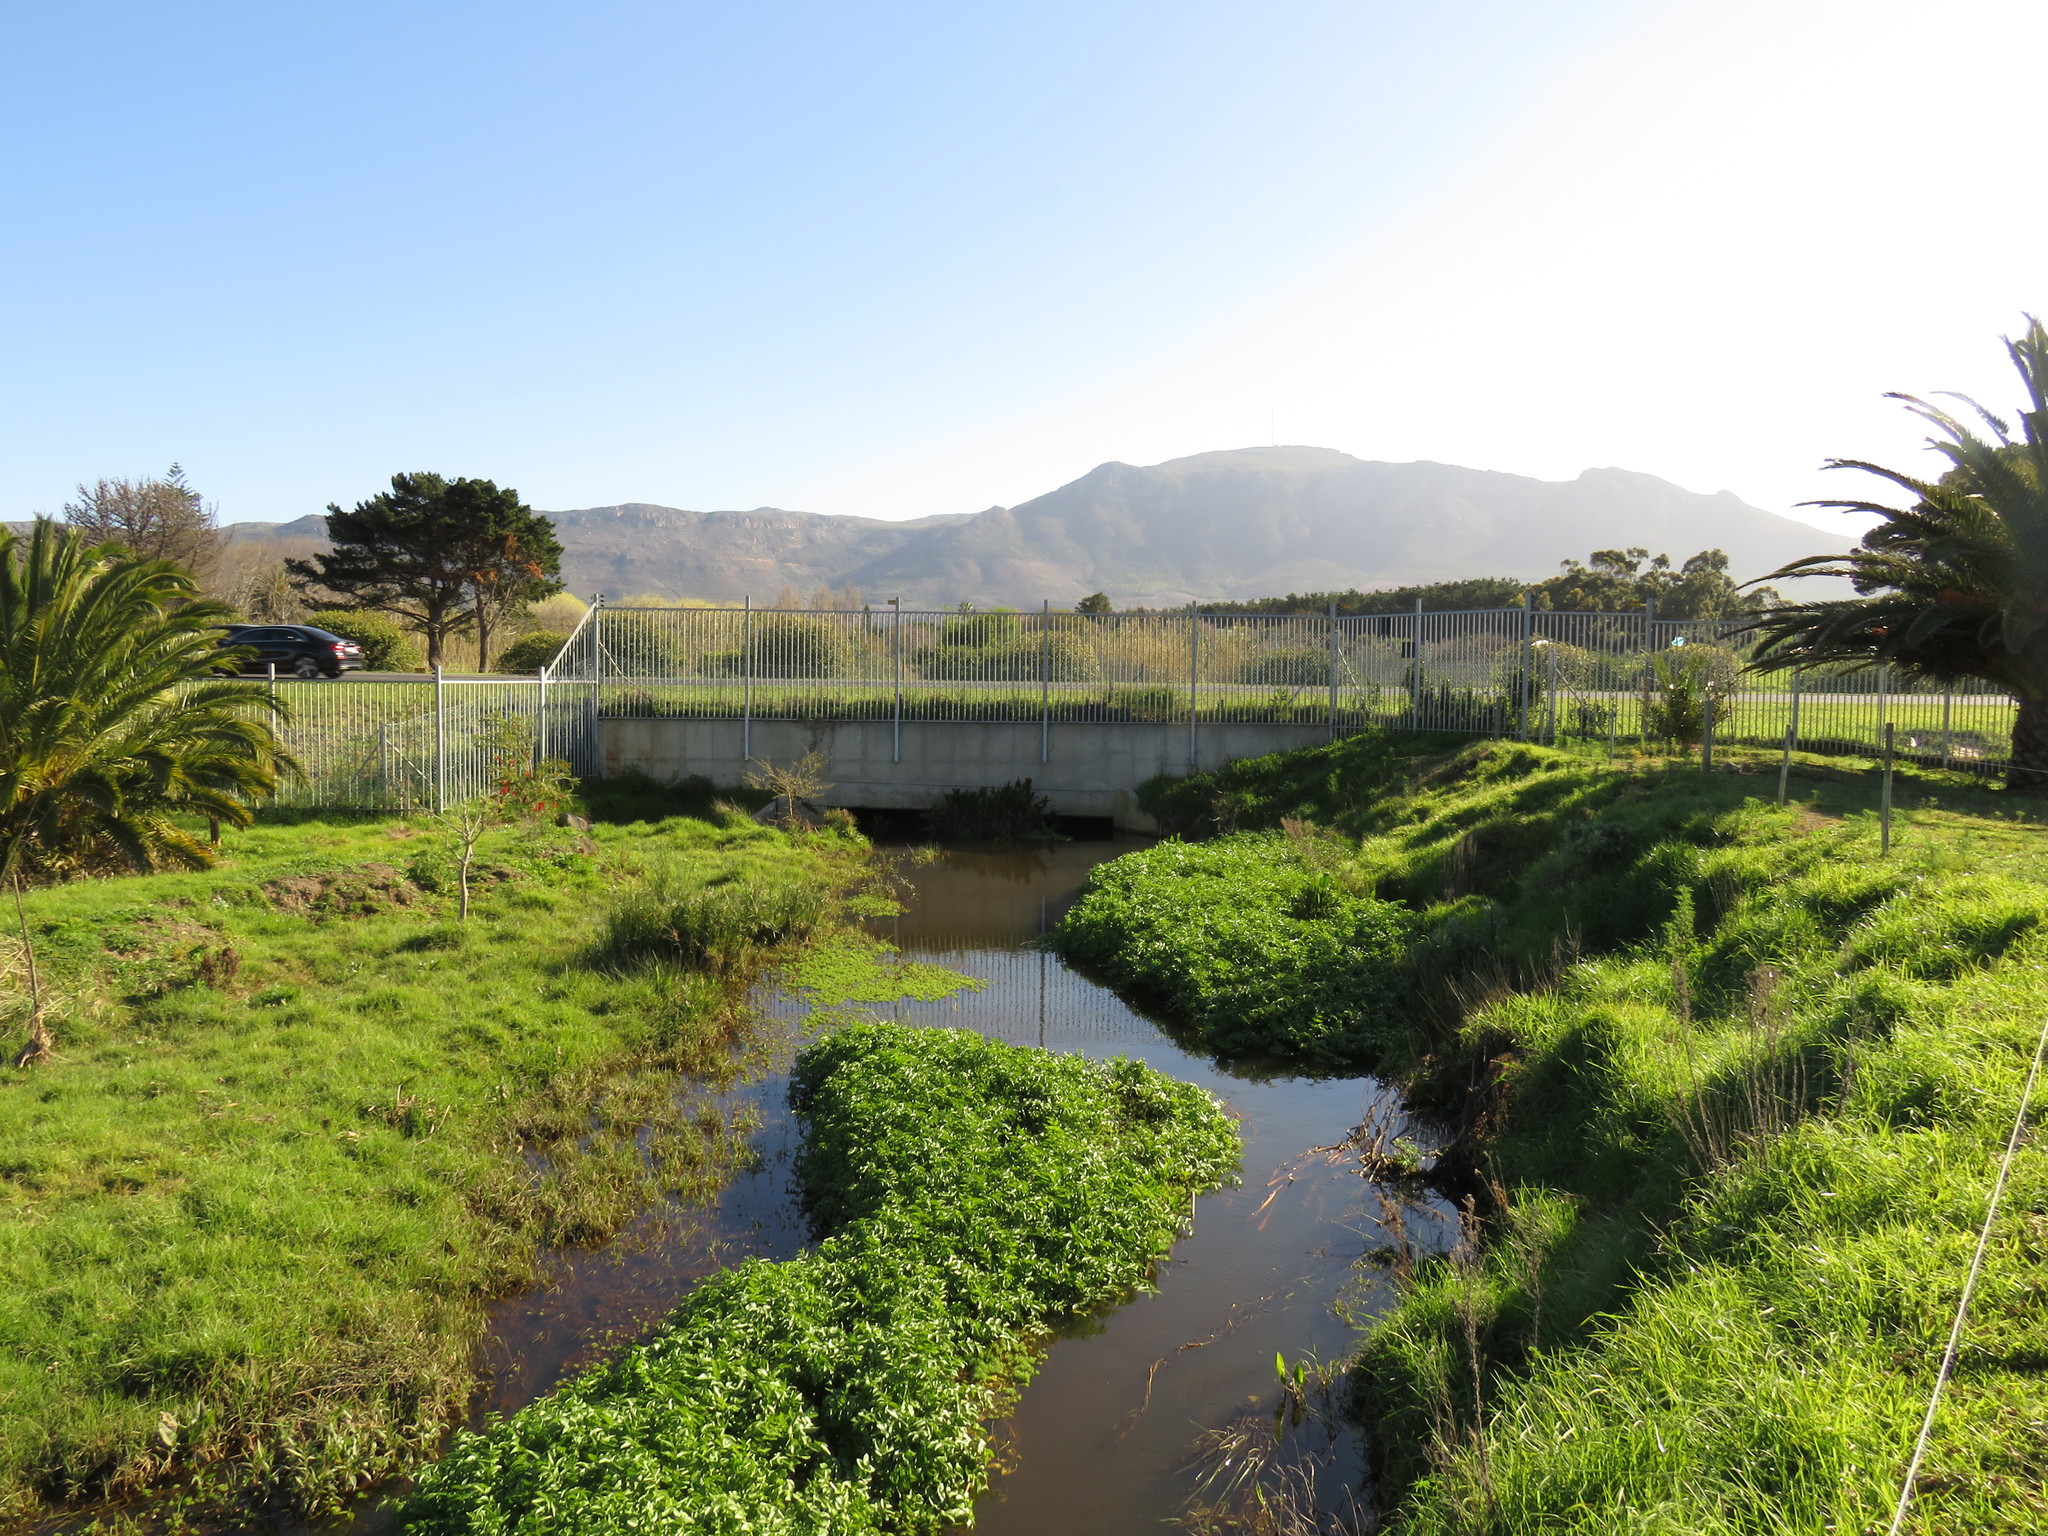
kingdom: Plantae
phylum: Tracheophyta
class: Magnoliopsida
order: Caryophyllales
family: Polygonaceae
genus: Persicaria
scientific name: Persicaria decipiens
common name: Willow-weed
